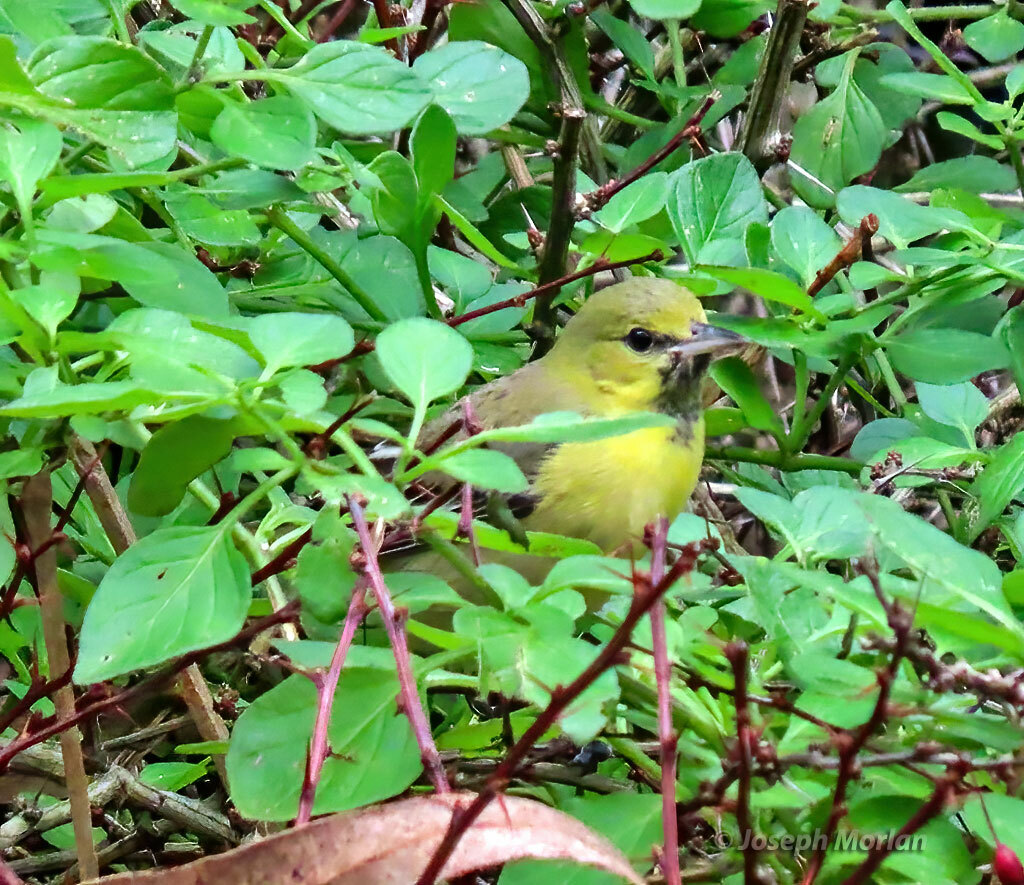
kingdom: Animalia
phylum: Chordata
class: Aves
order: Passeriformes
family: Icteridae
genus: Icterus
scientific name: Icterus spurius
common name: Orchard oriole
